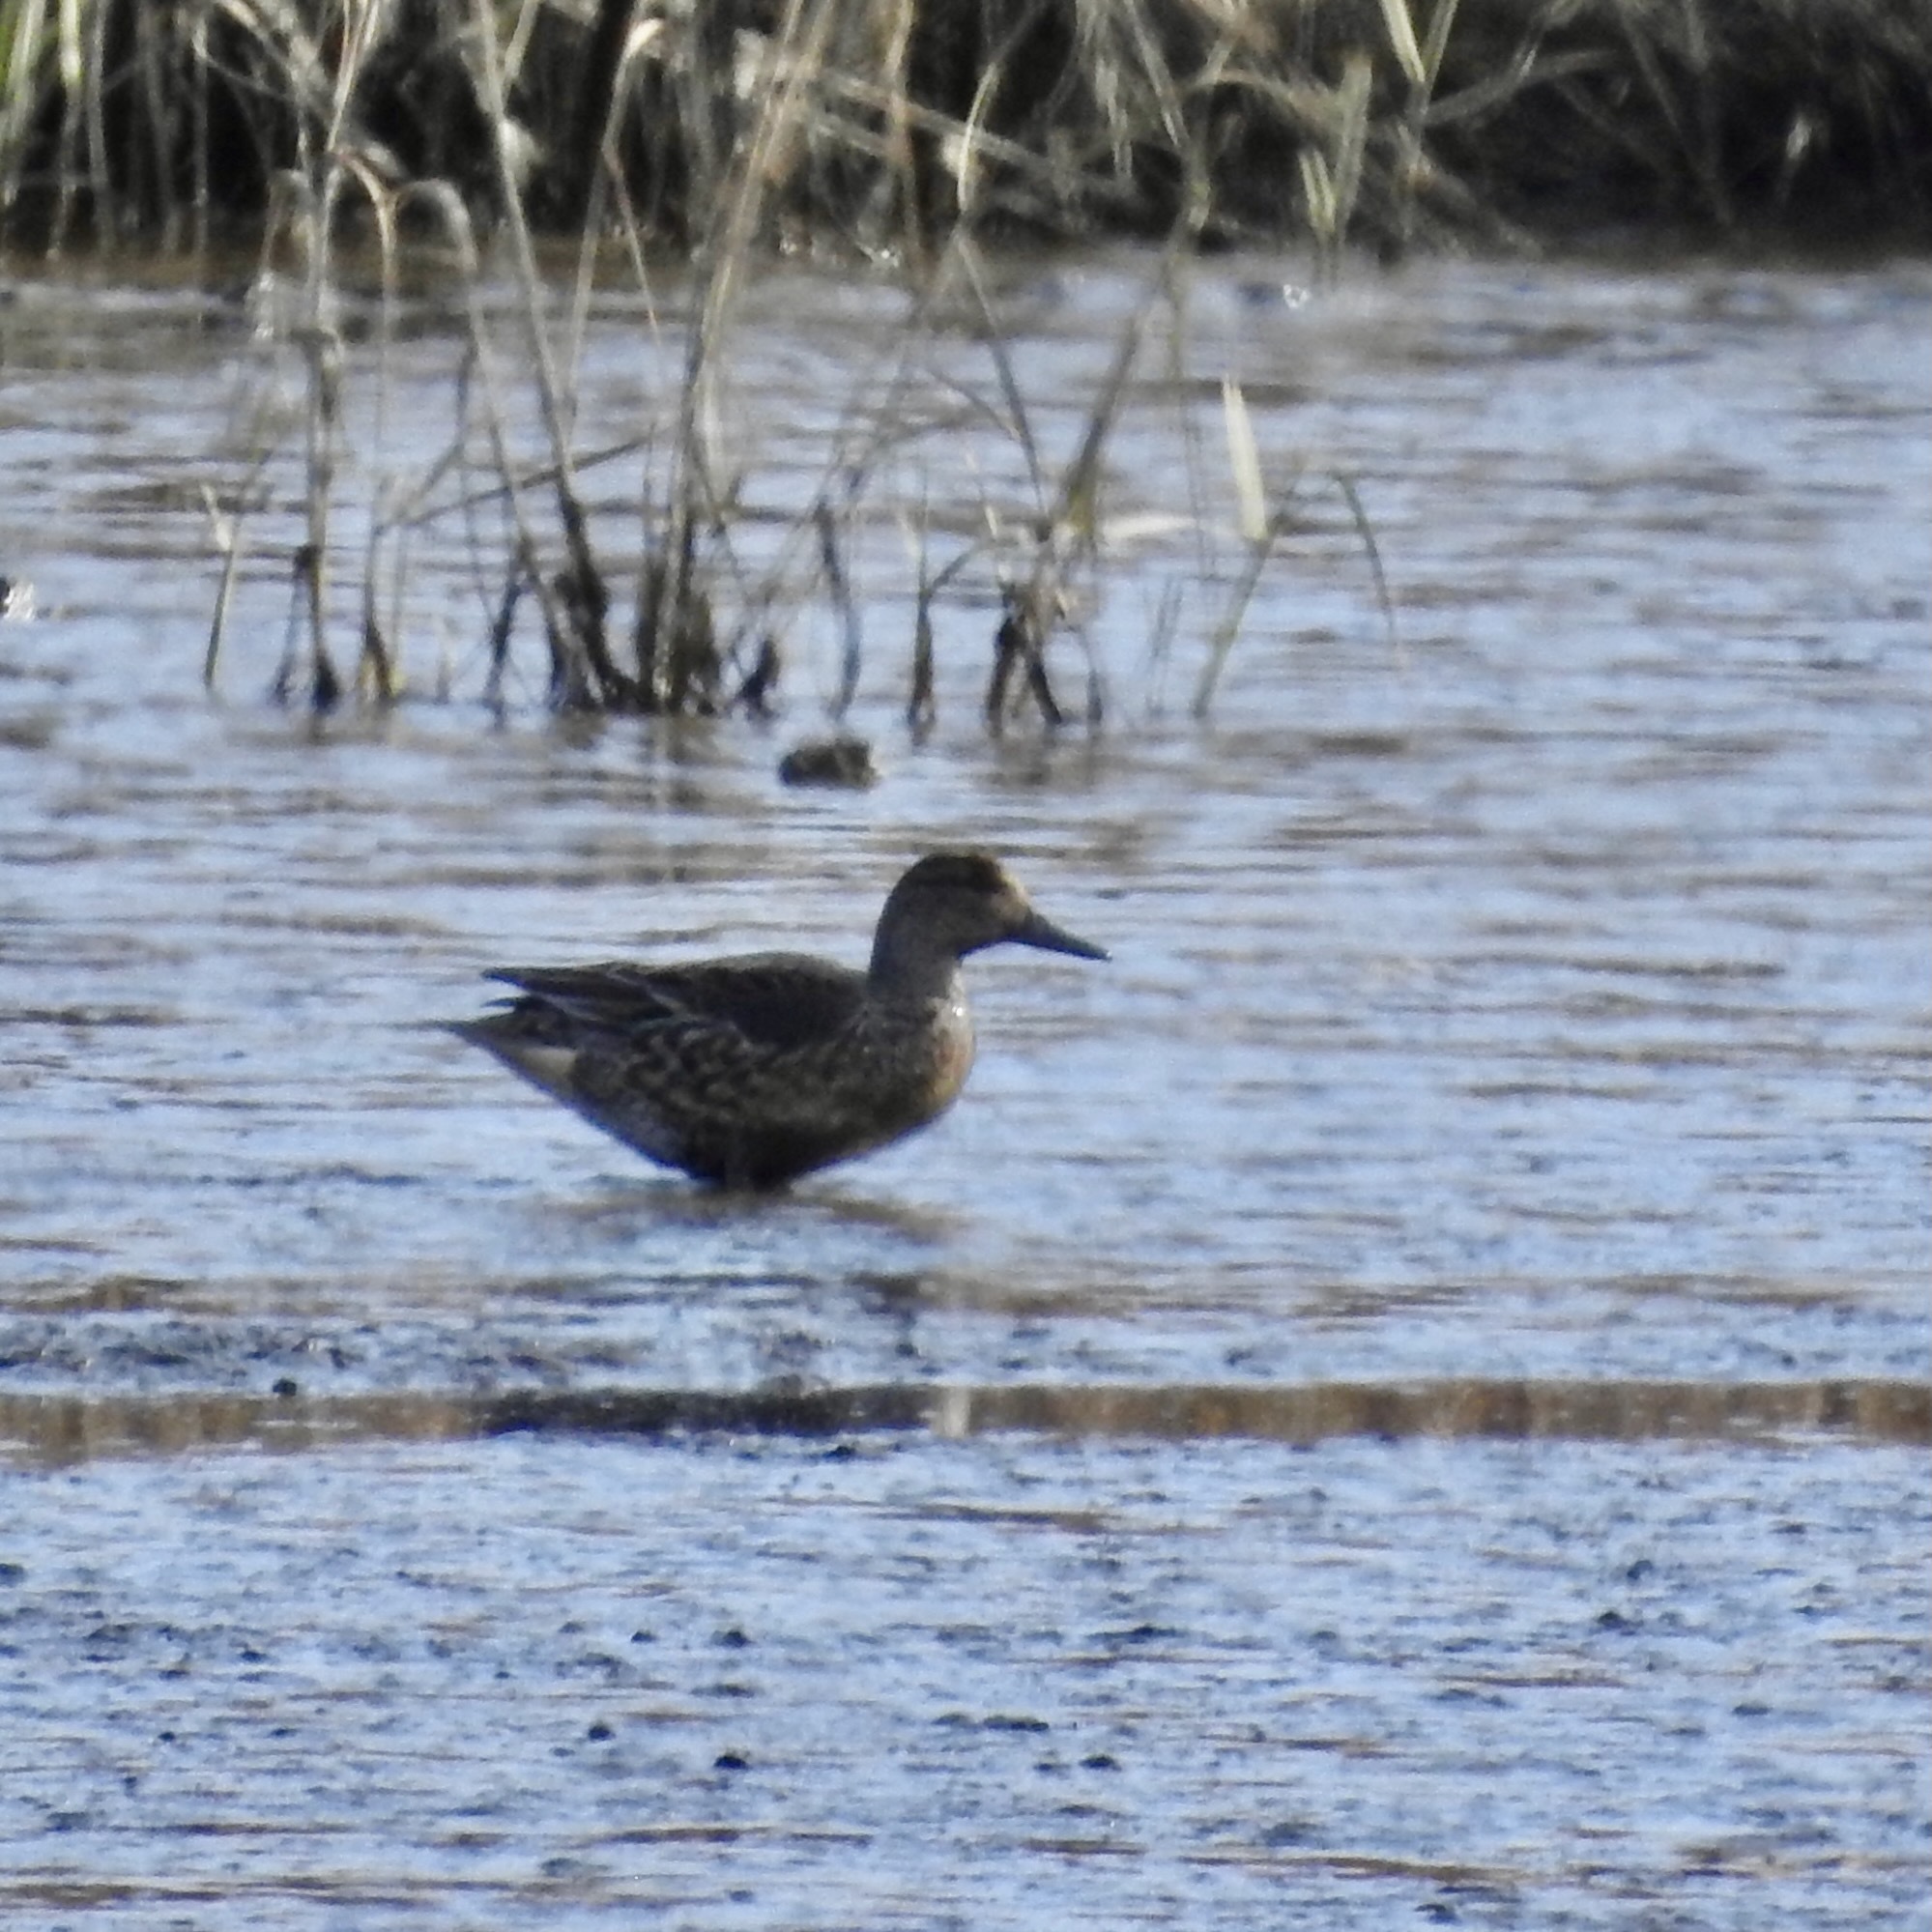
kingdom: Animalia
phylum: Chordata
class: Aves
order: Anseriformes
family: Anatidae
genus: Anas
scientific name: Anas crecca
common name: Eurasian teal
